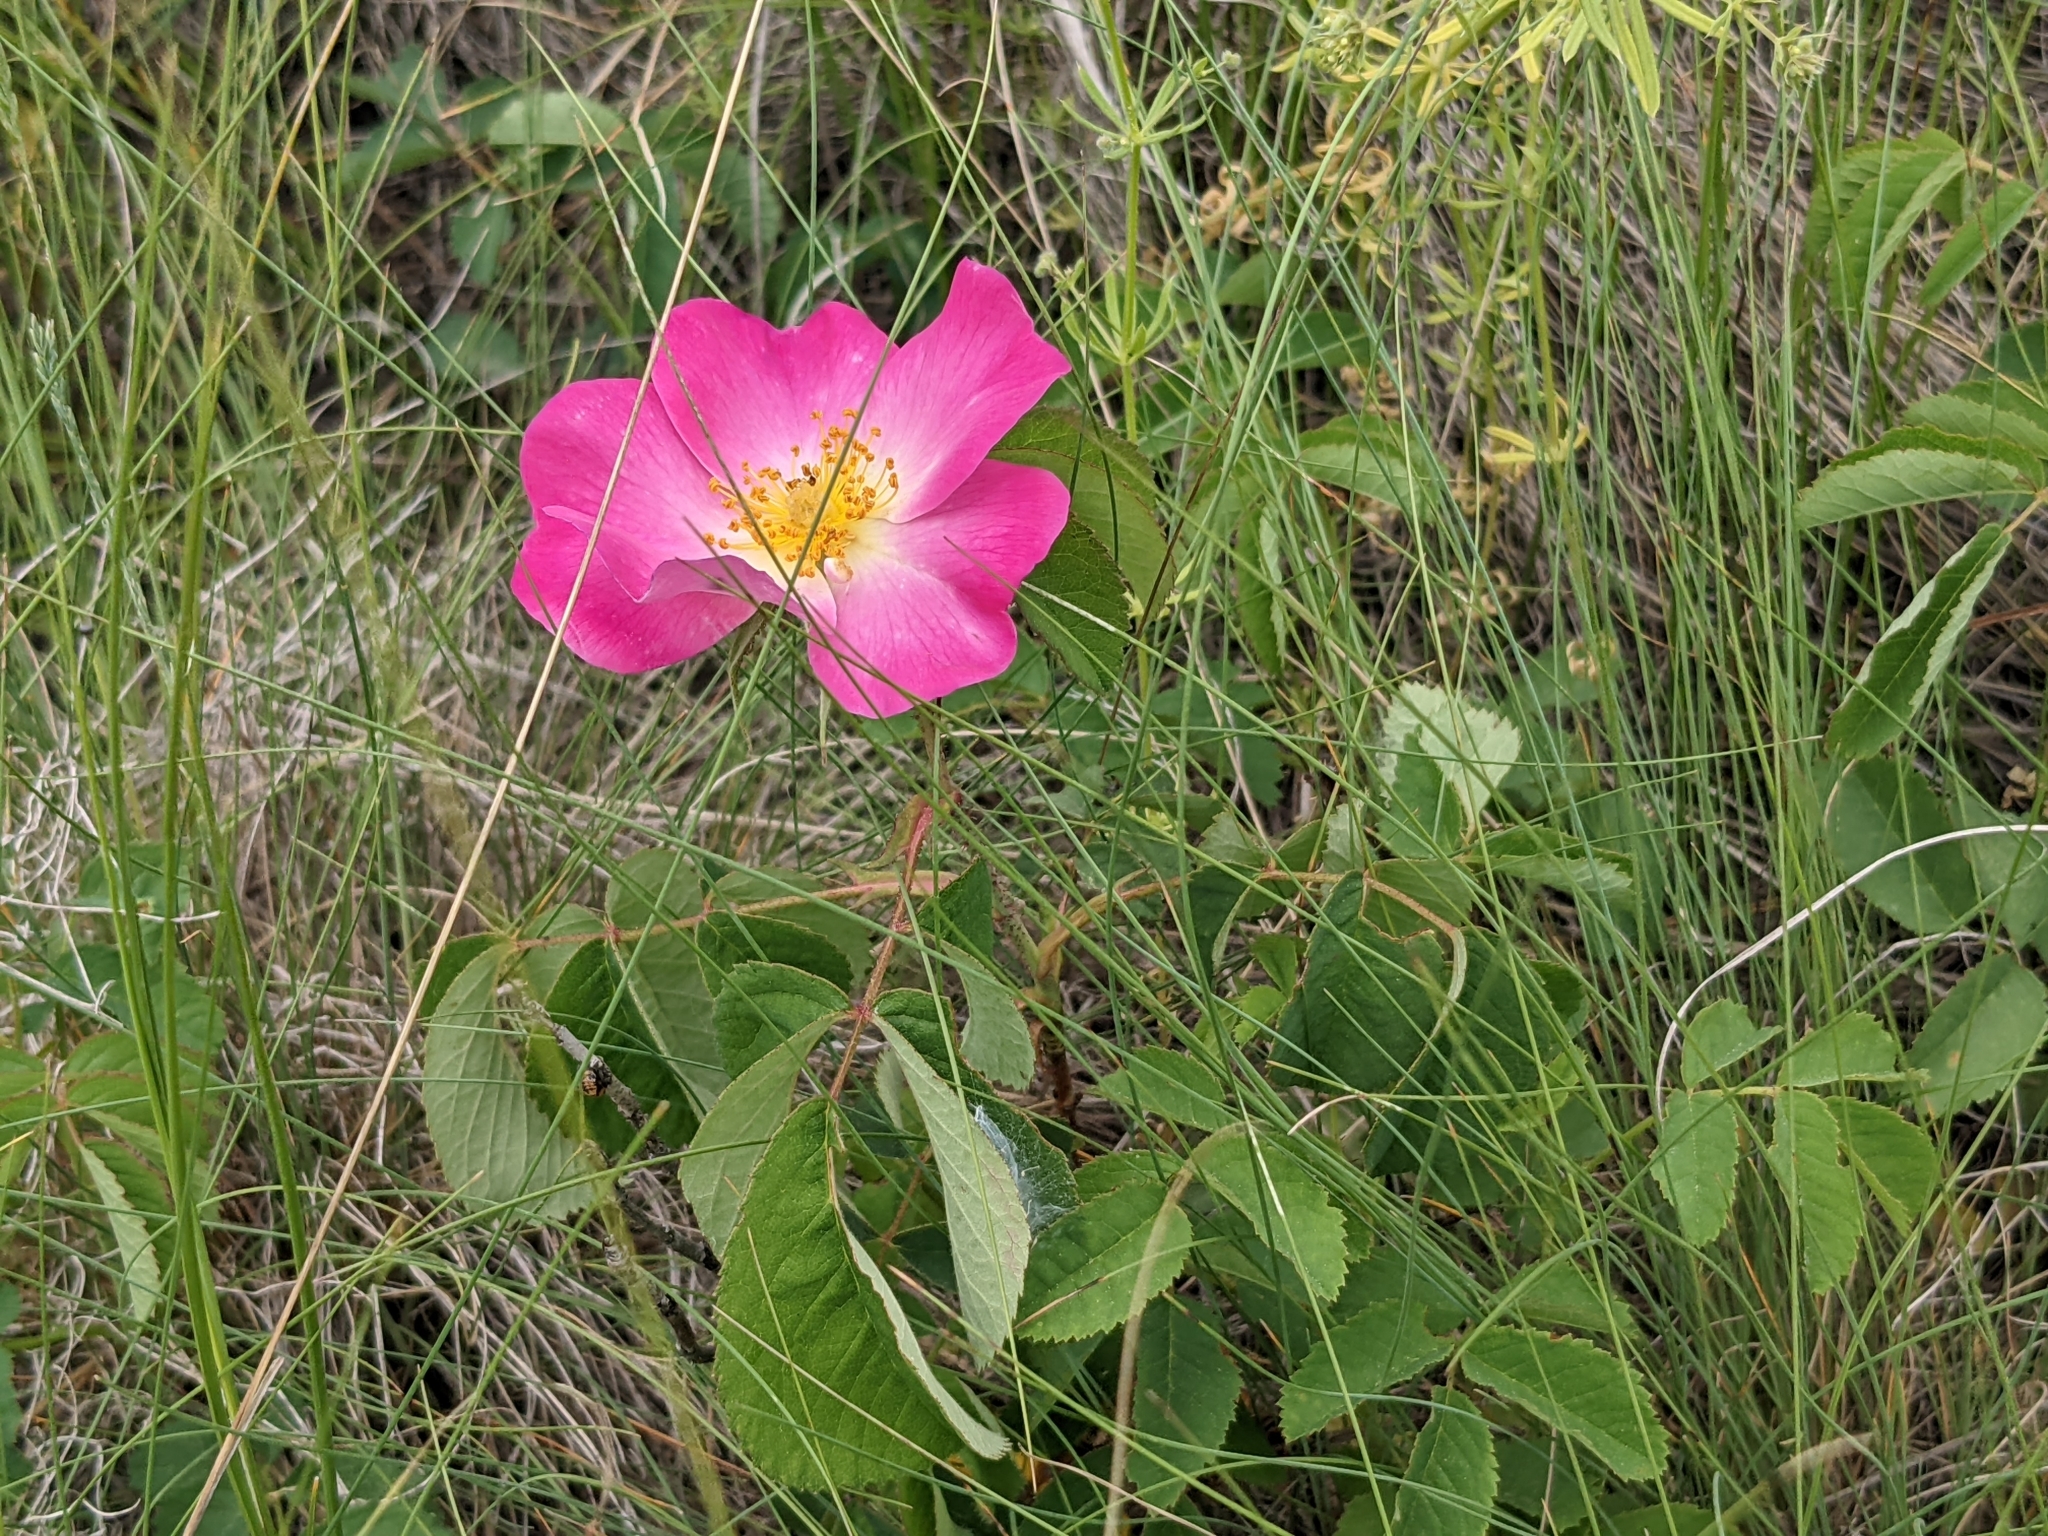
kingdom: Plantae
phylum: Tracheophyta
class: Magnoliopsida
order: Rosales
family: Rosaceae
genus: Rosa
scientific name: Rosa gallica
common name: French rose
